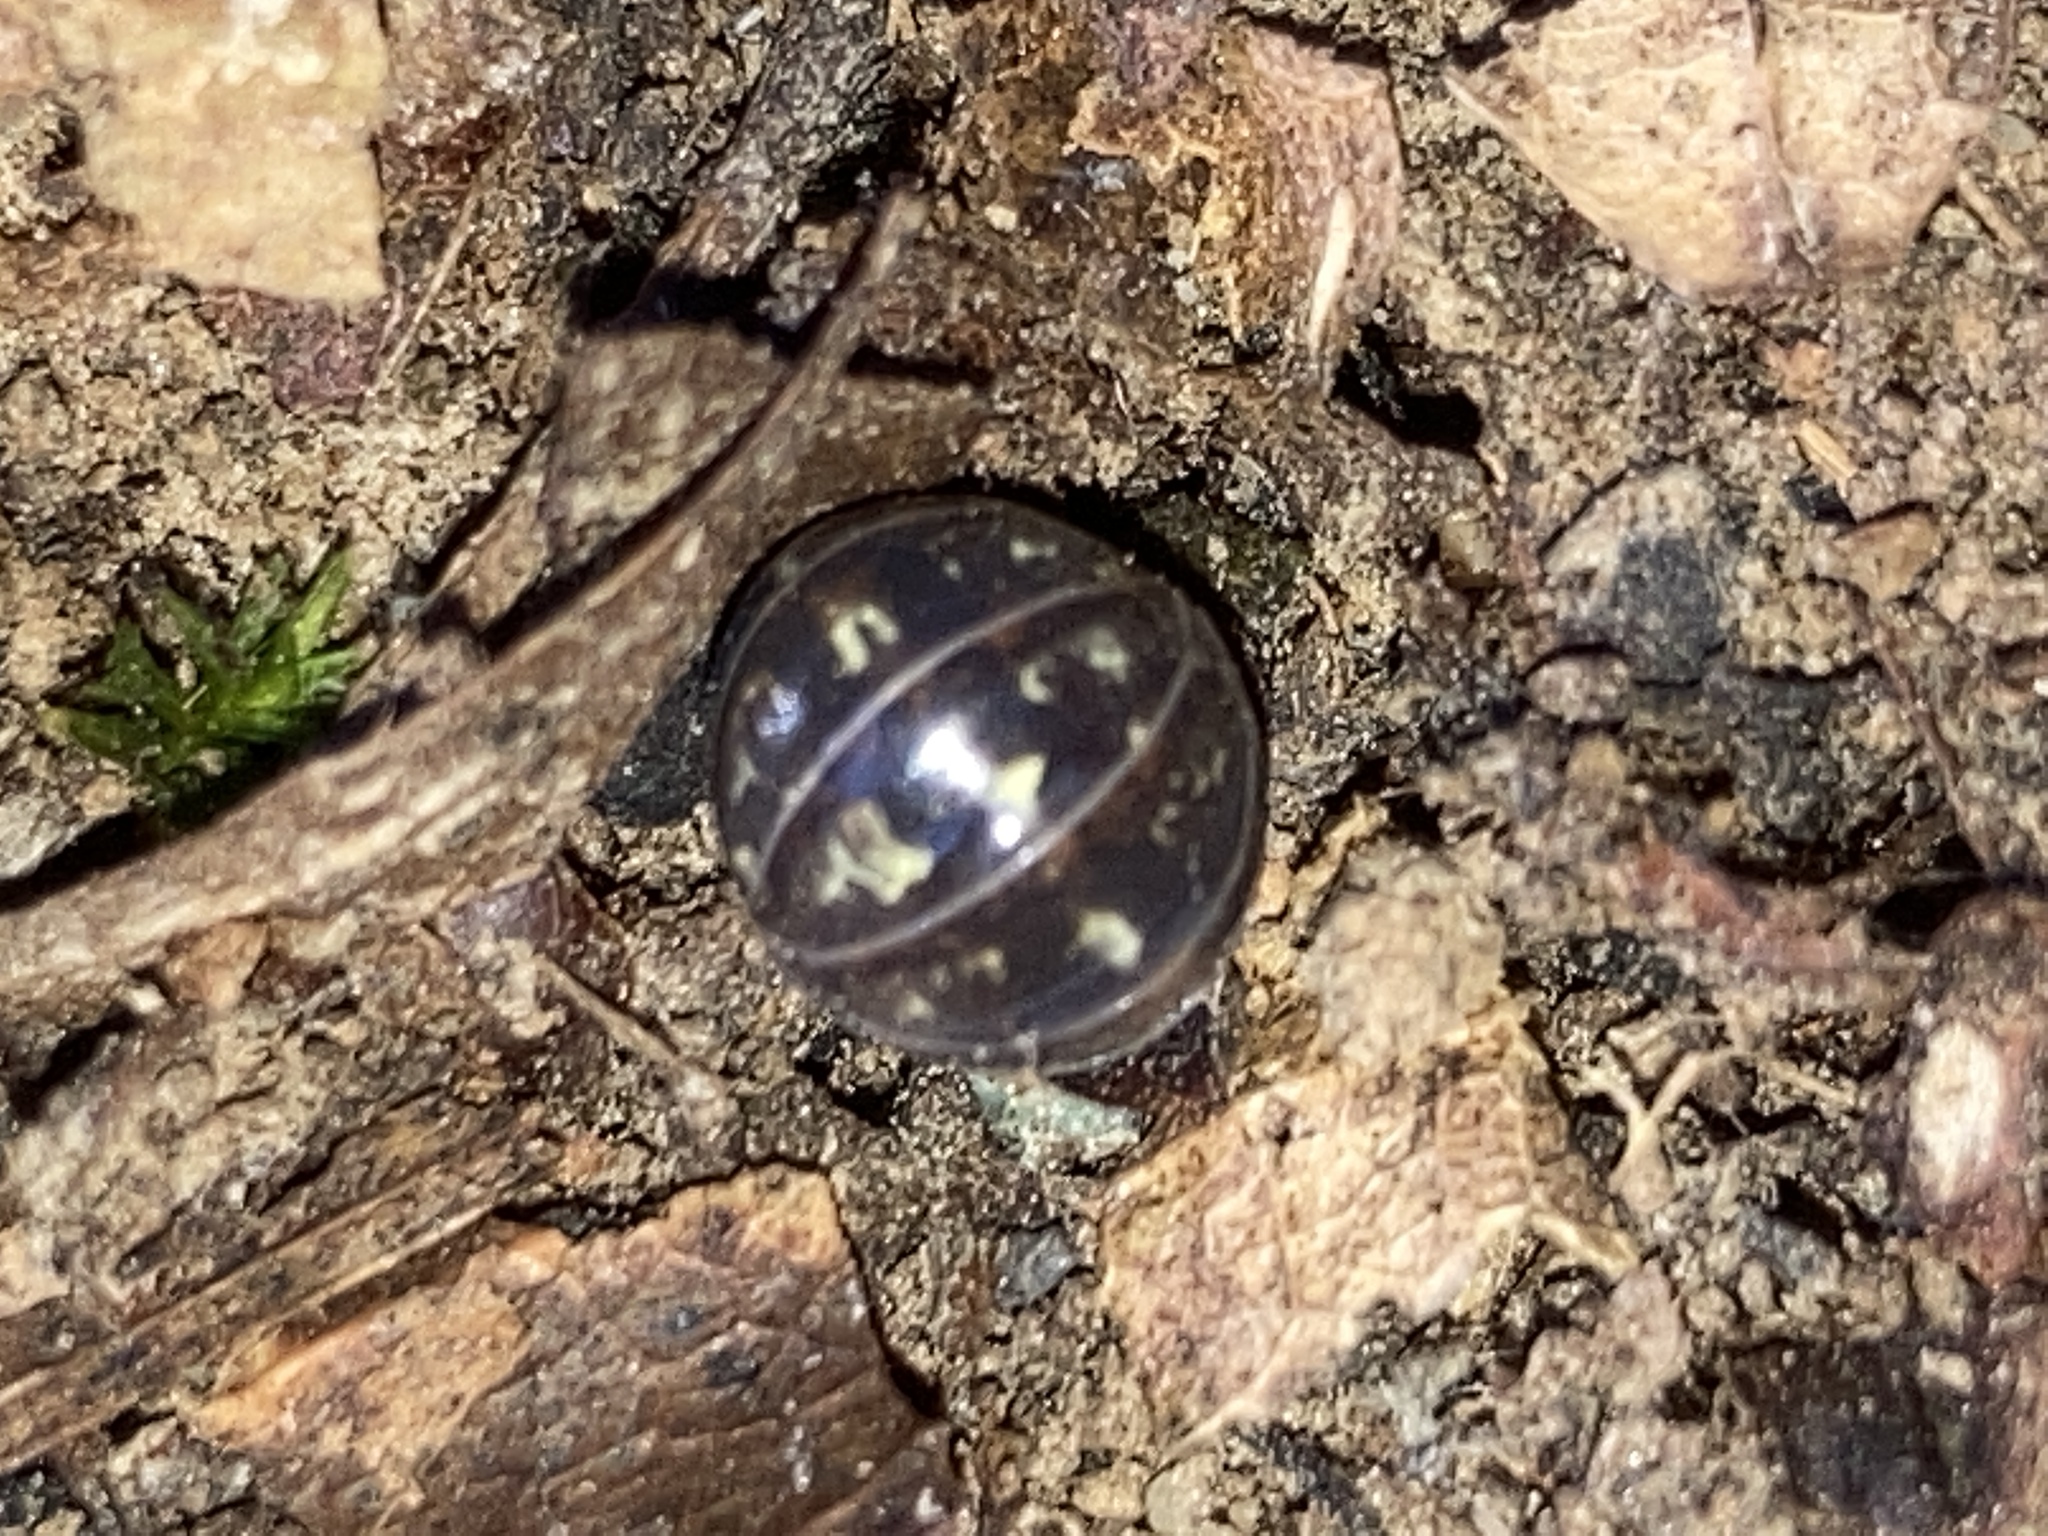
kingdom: Animalia
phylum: Arthropoda
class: Malacostraca
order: Isopoda
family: Armadillidiidae
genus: Armadillidium
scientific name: Armadillidium vulgare
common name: Common pill woodlouse
